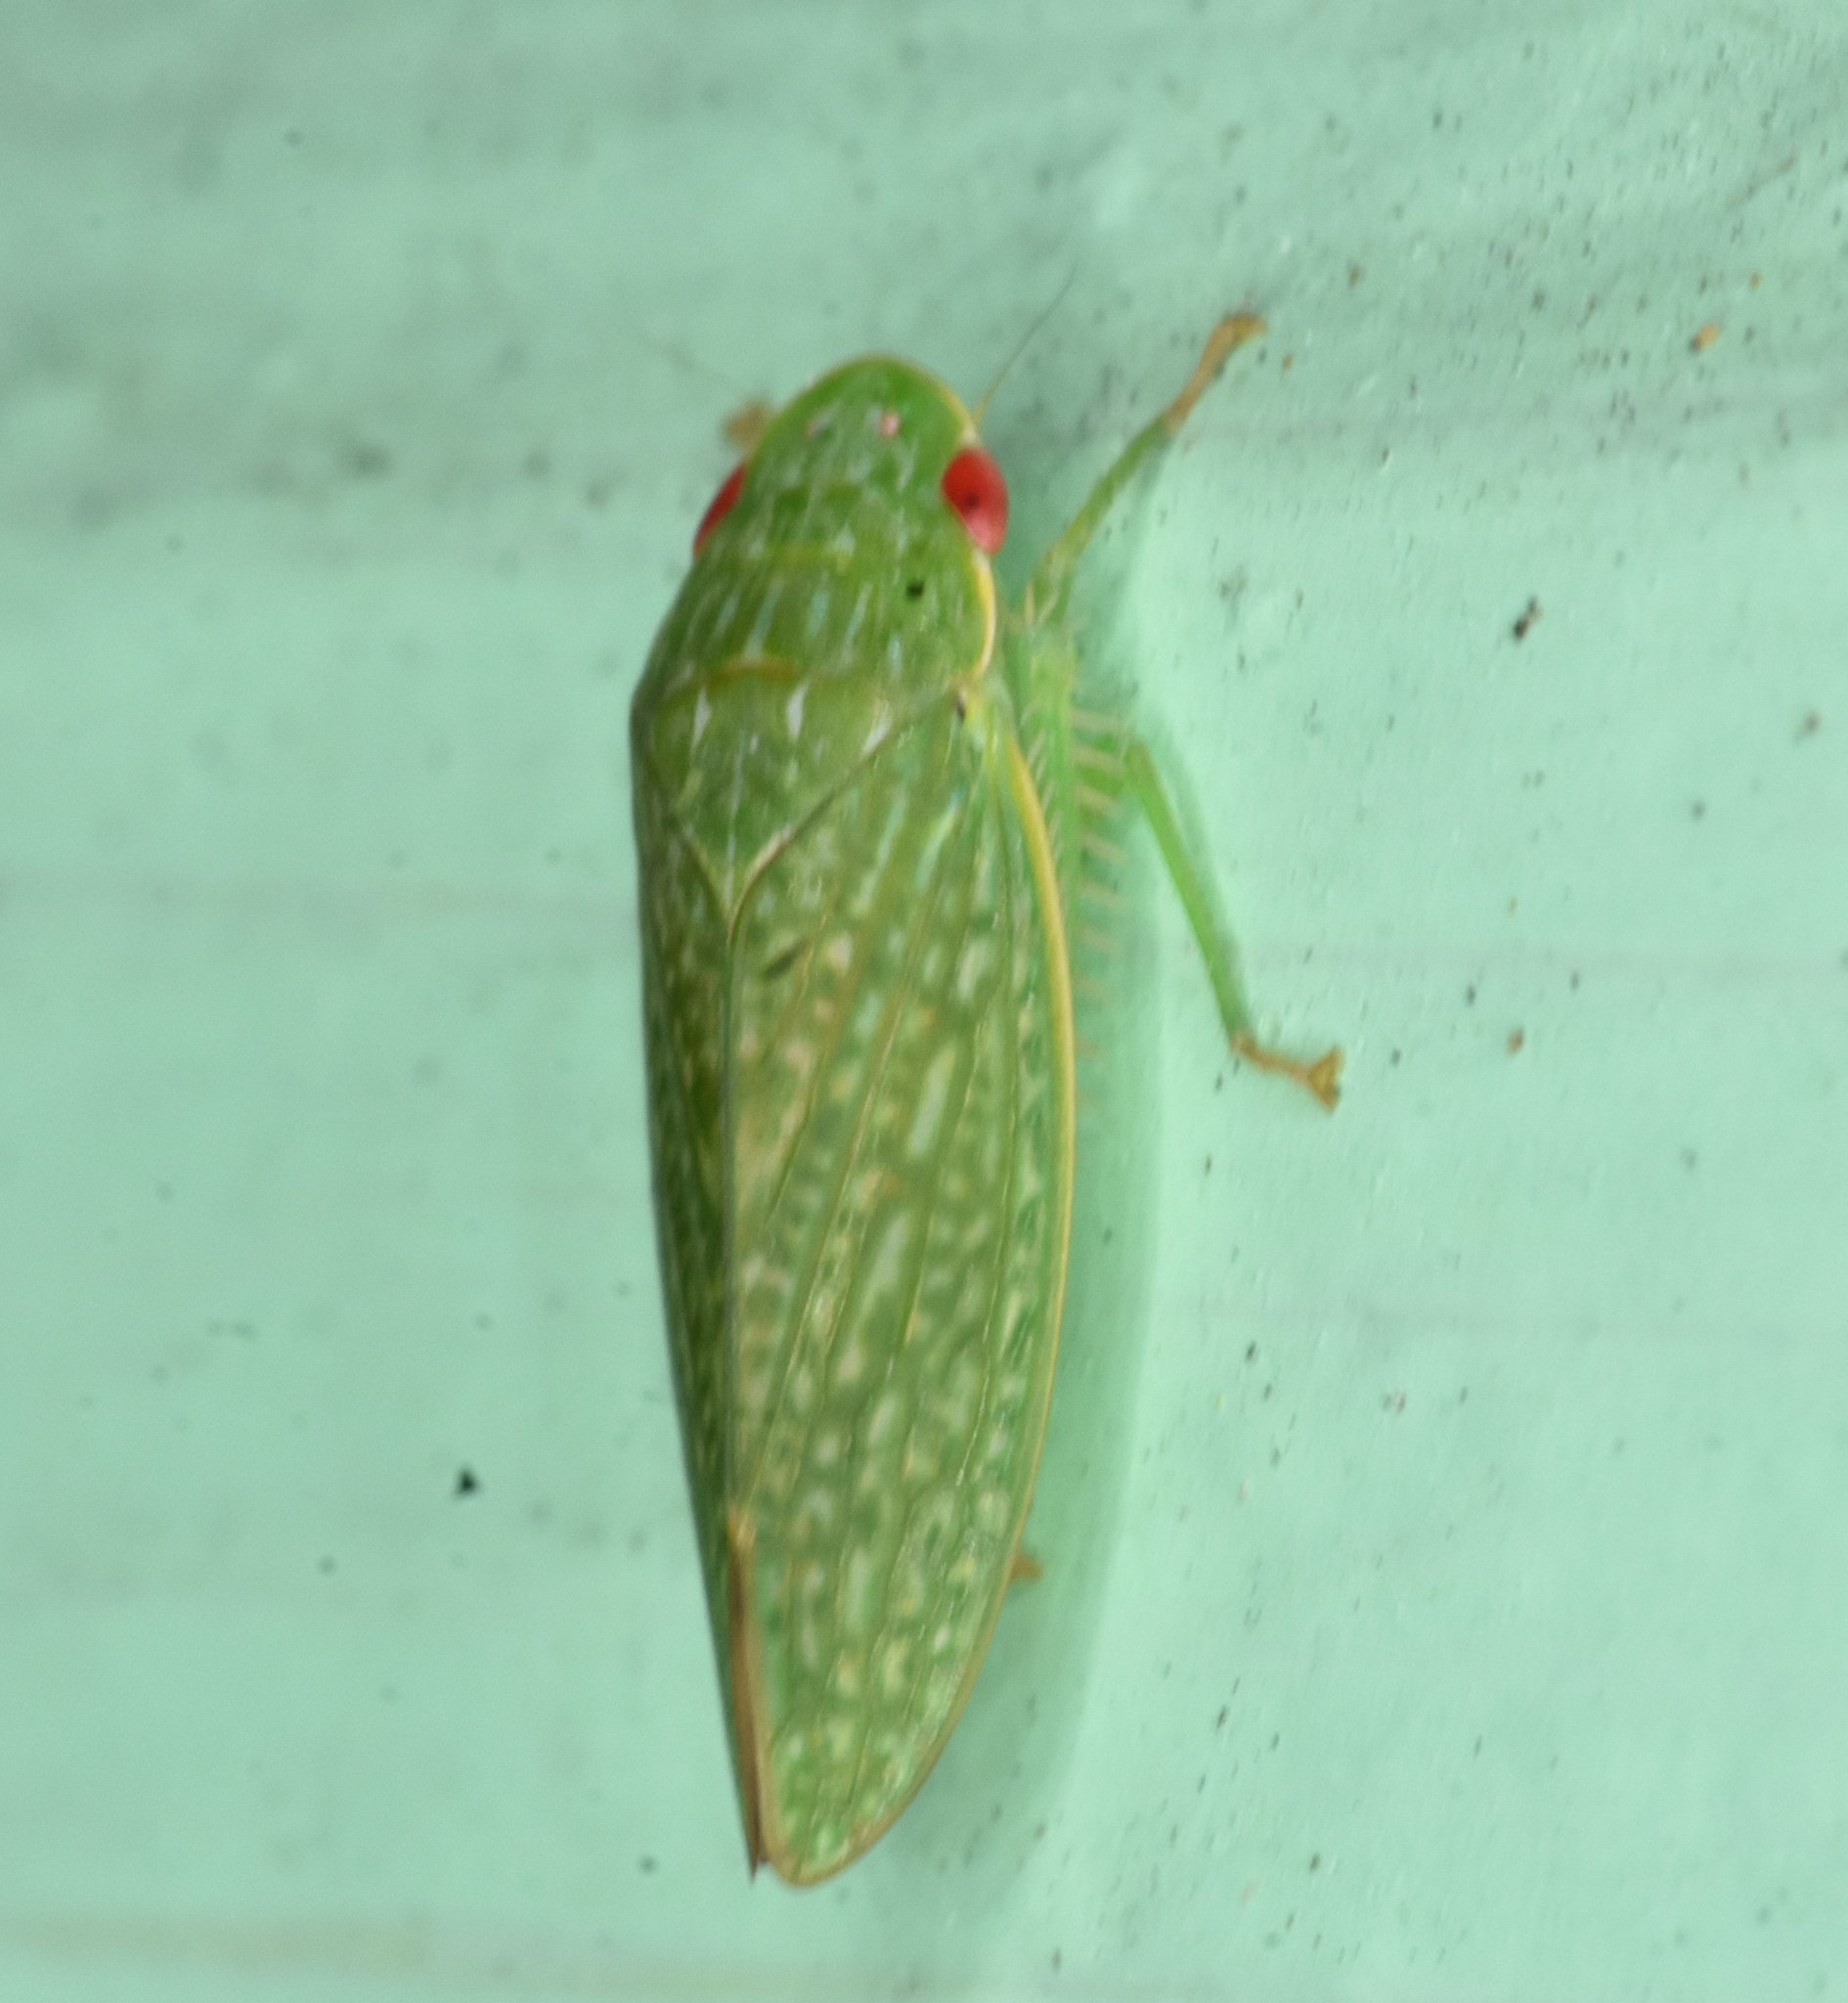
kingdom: Animalia
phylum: Arthropoda
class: Insecta
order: Hemiptera
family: Cicadellidae
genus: Rugosana
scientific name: Rugosana querci
